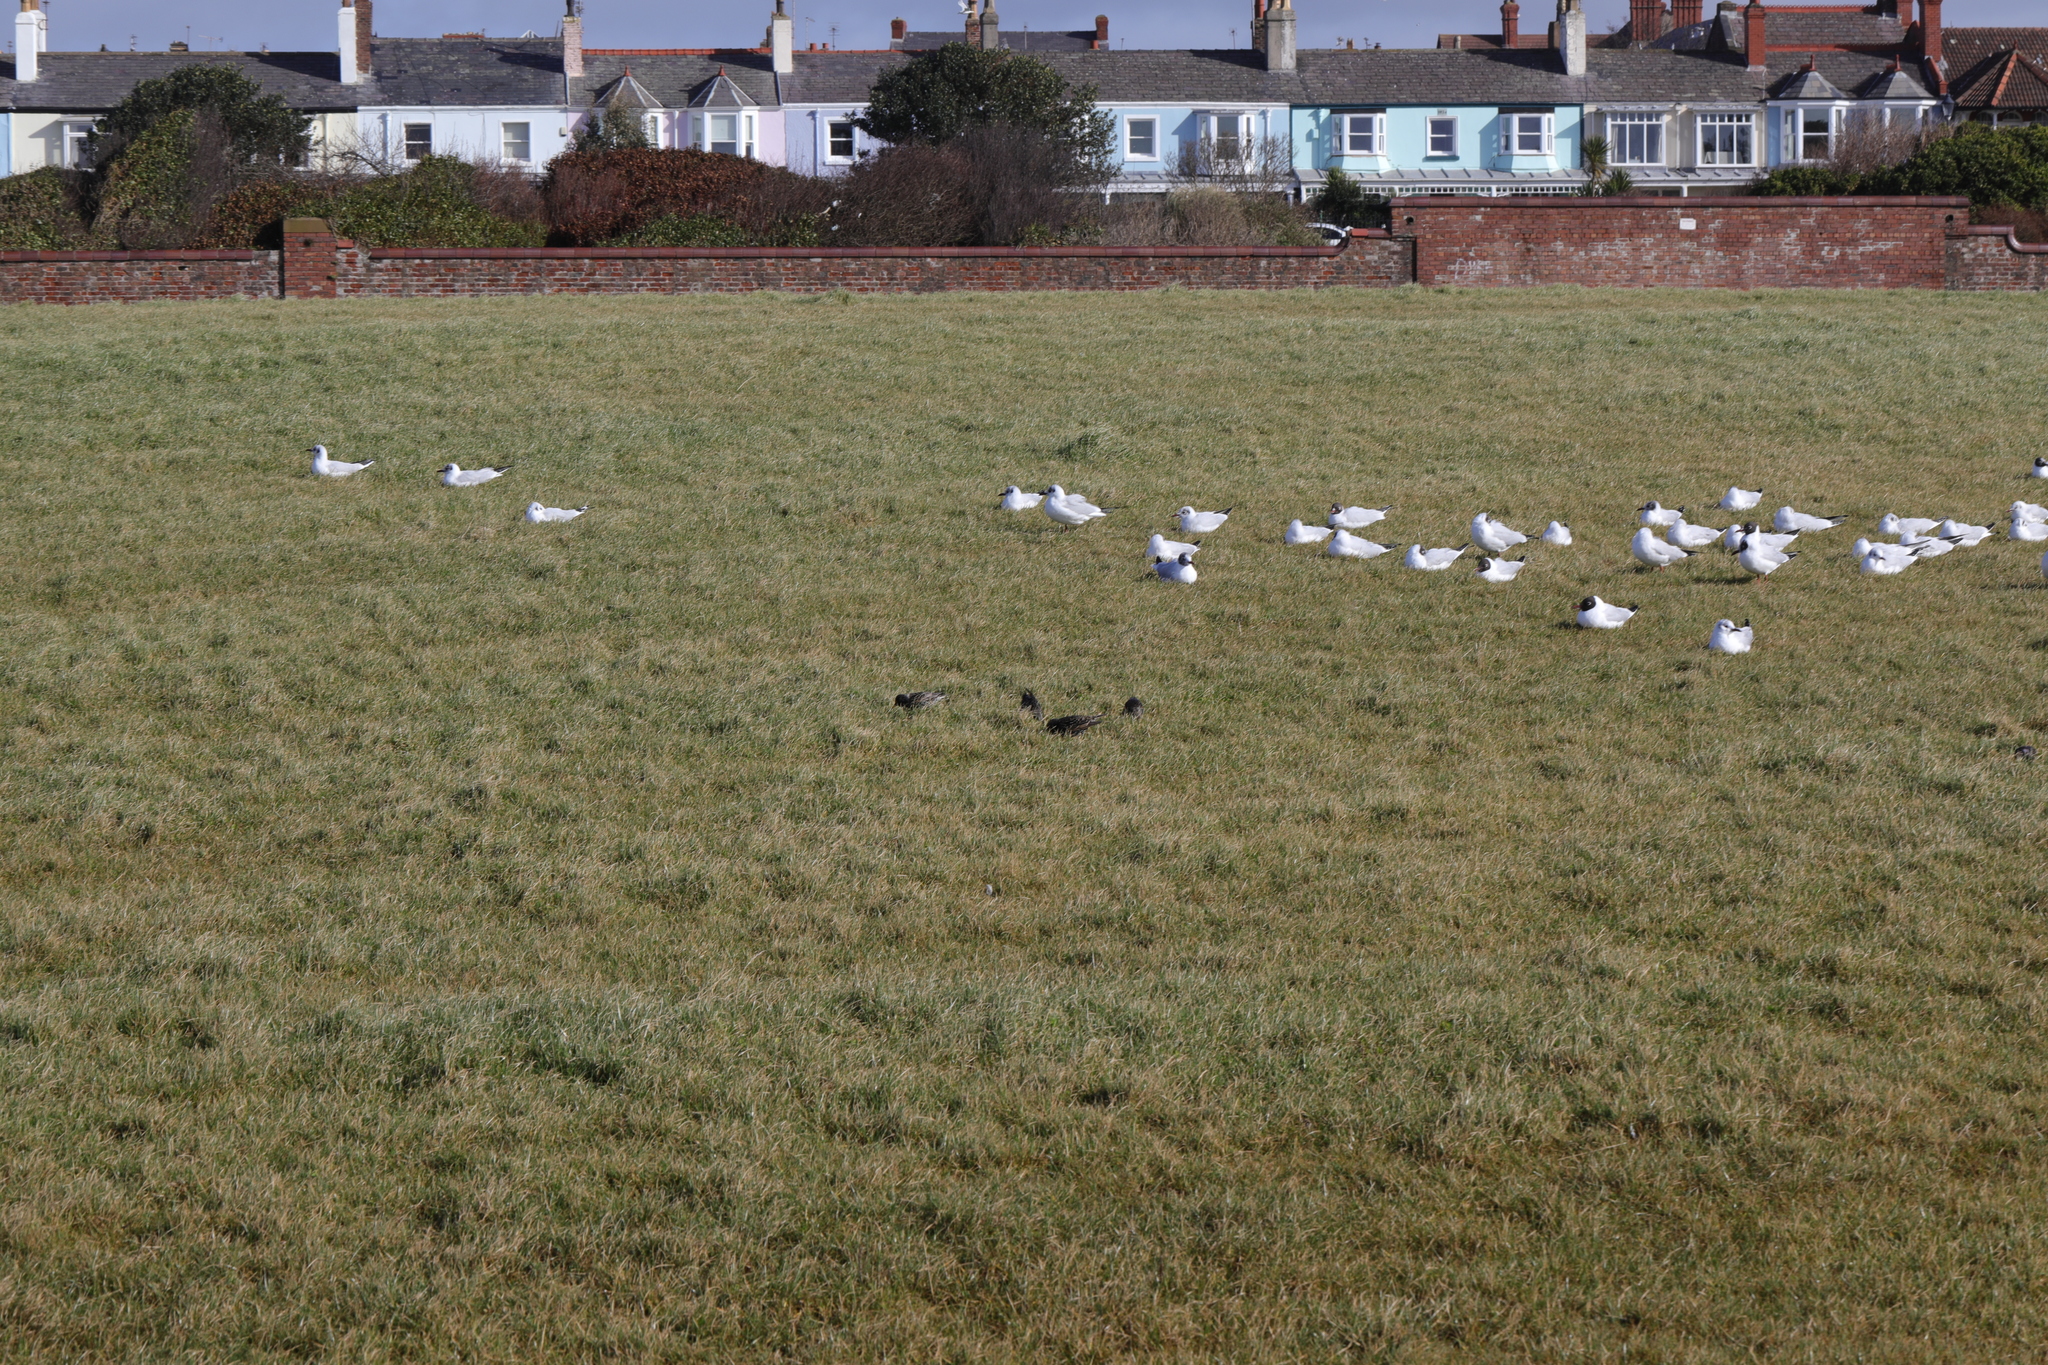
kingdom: Animalia
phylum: Chordata
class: Aves
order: Passeriformes
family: Sturnidae
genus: Sturnus
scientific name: Sturnus vulgaris
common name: Common starling
